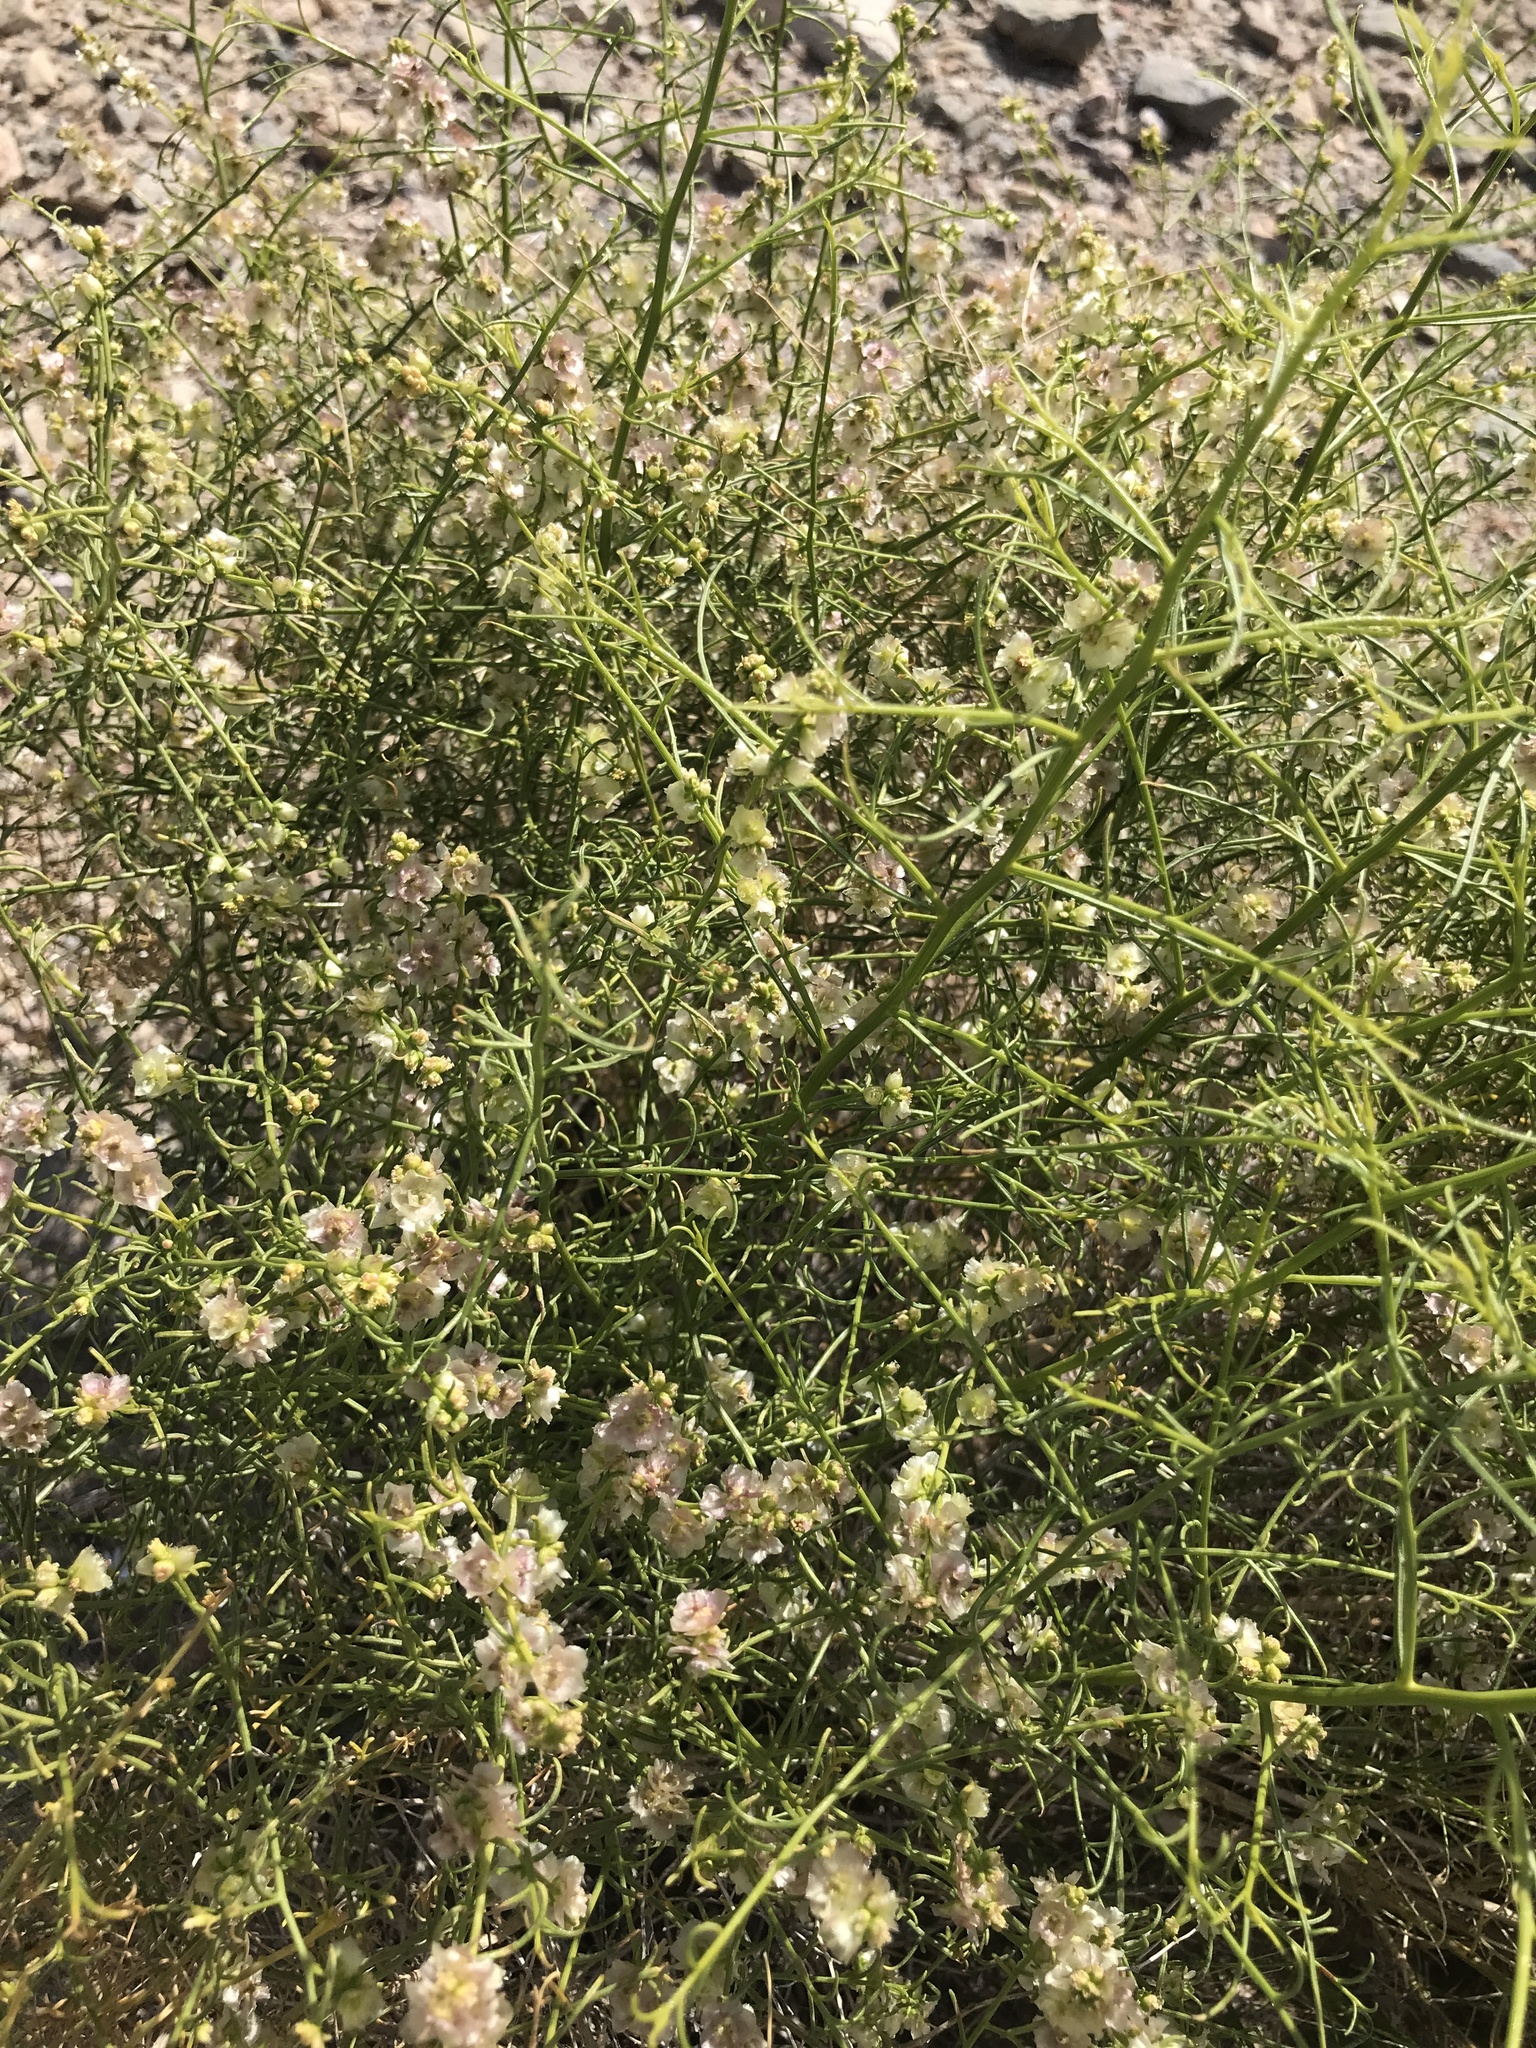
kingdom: Plantae
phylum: Tracheophyta
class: Magnoliopsida
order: Asterales
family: Asteraceae
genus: Ambrosia
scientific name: Ambrosia salsola
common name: Burrobrush
